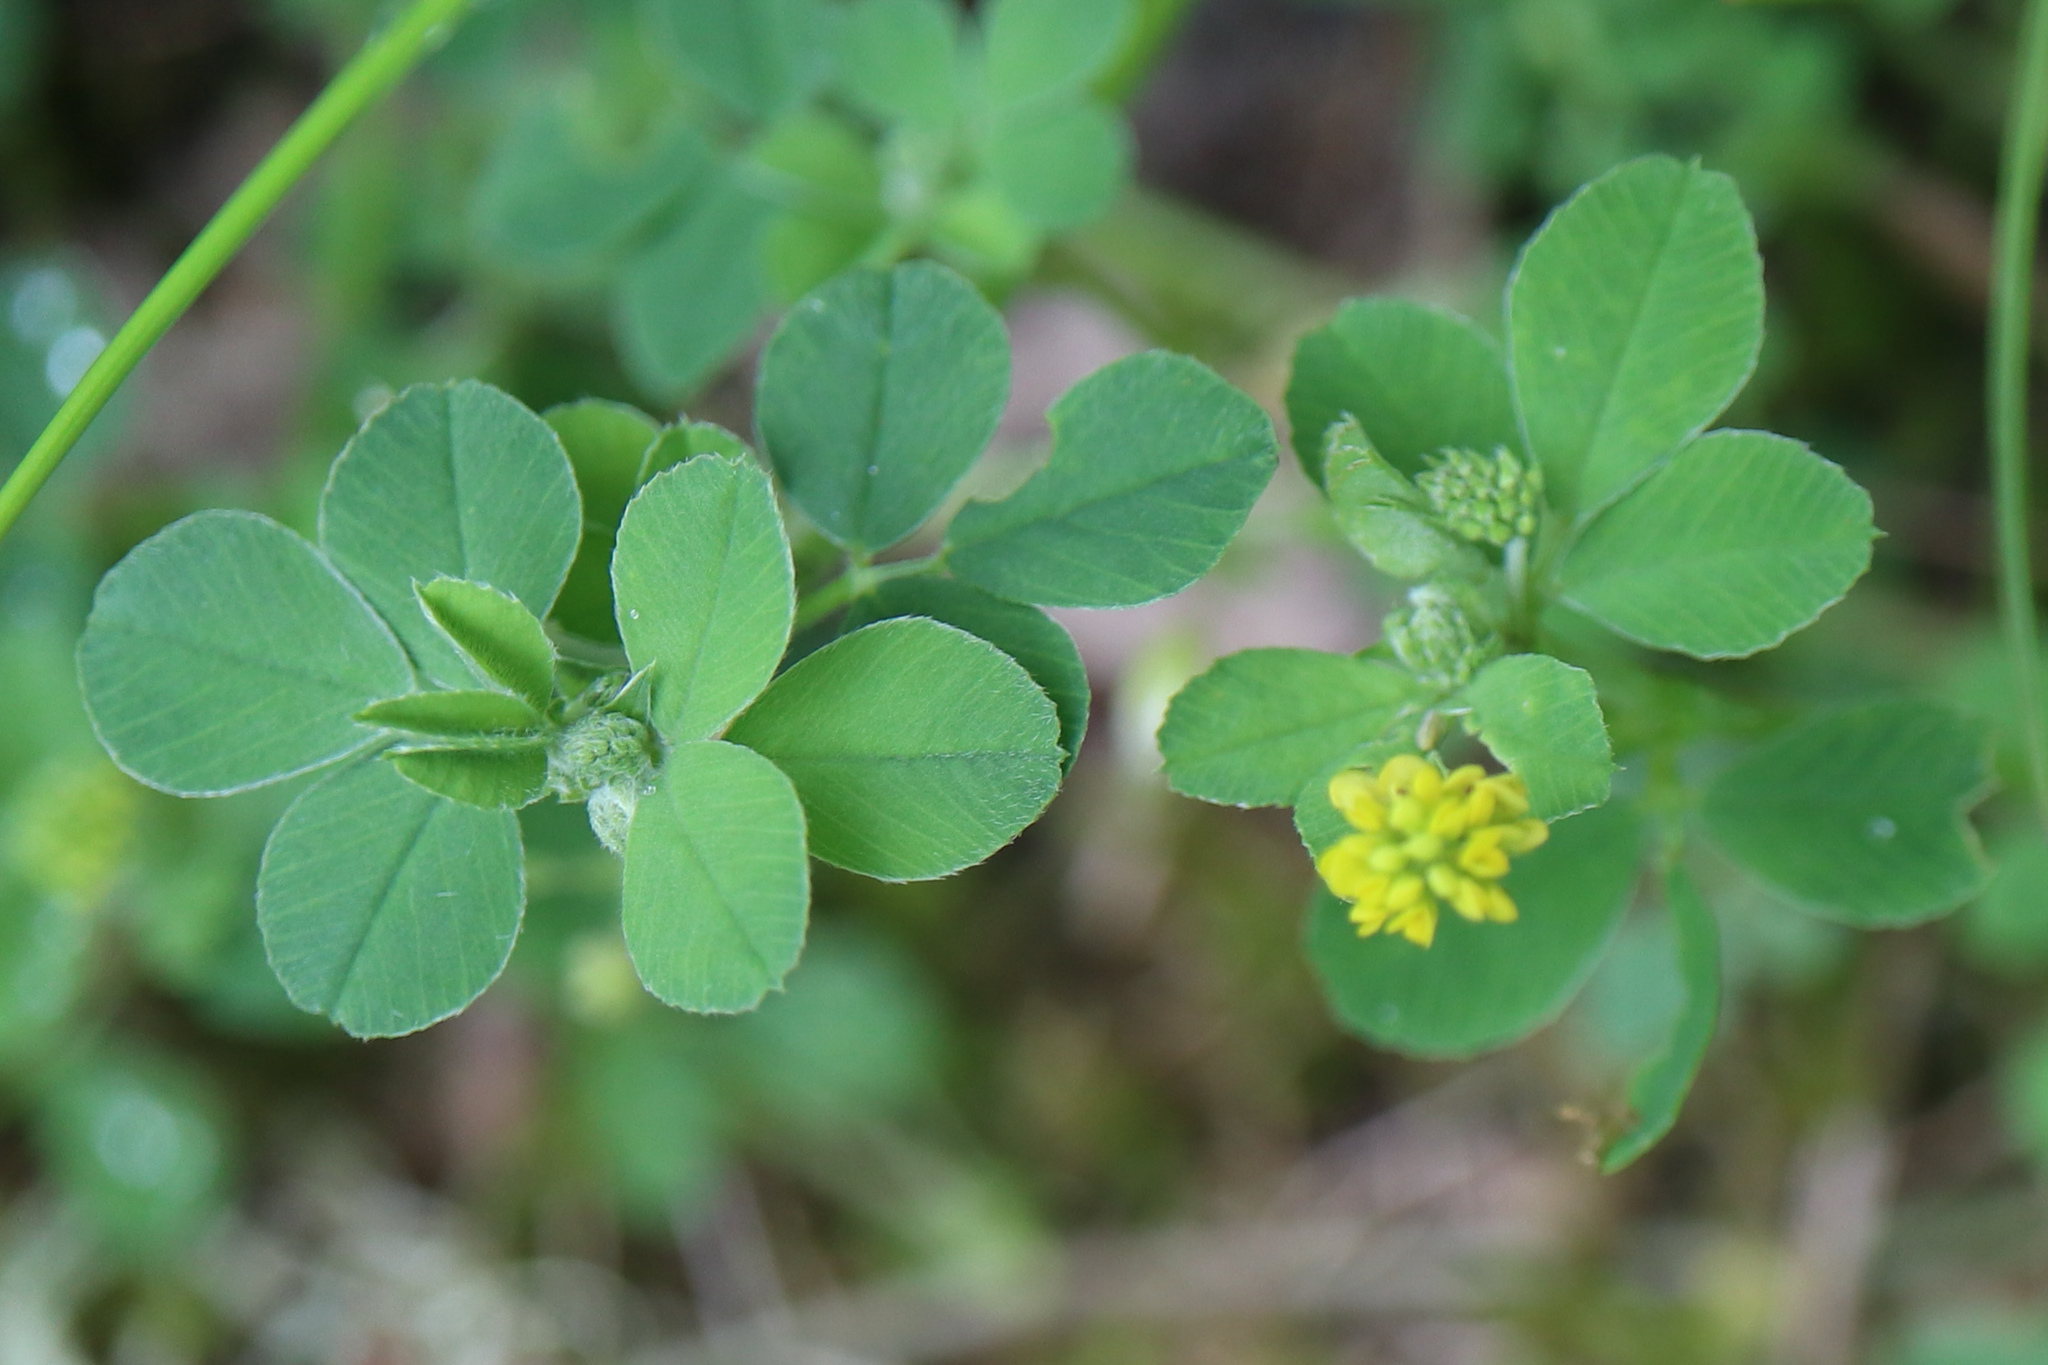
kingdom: Plantae
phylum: Tracheophyta
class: Magnoliopsida
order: Fabales
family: Fabaceae
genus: Medicago
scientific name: Medicago lupulina
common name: Black medick
